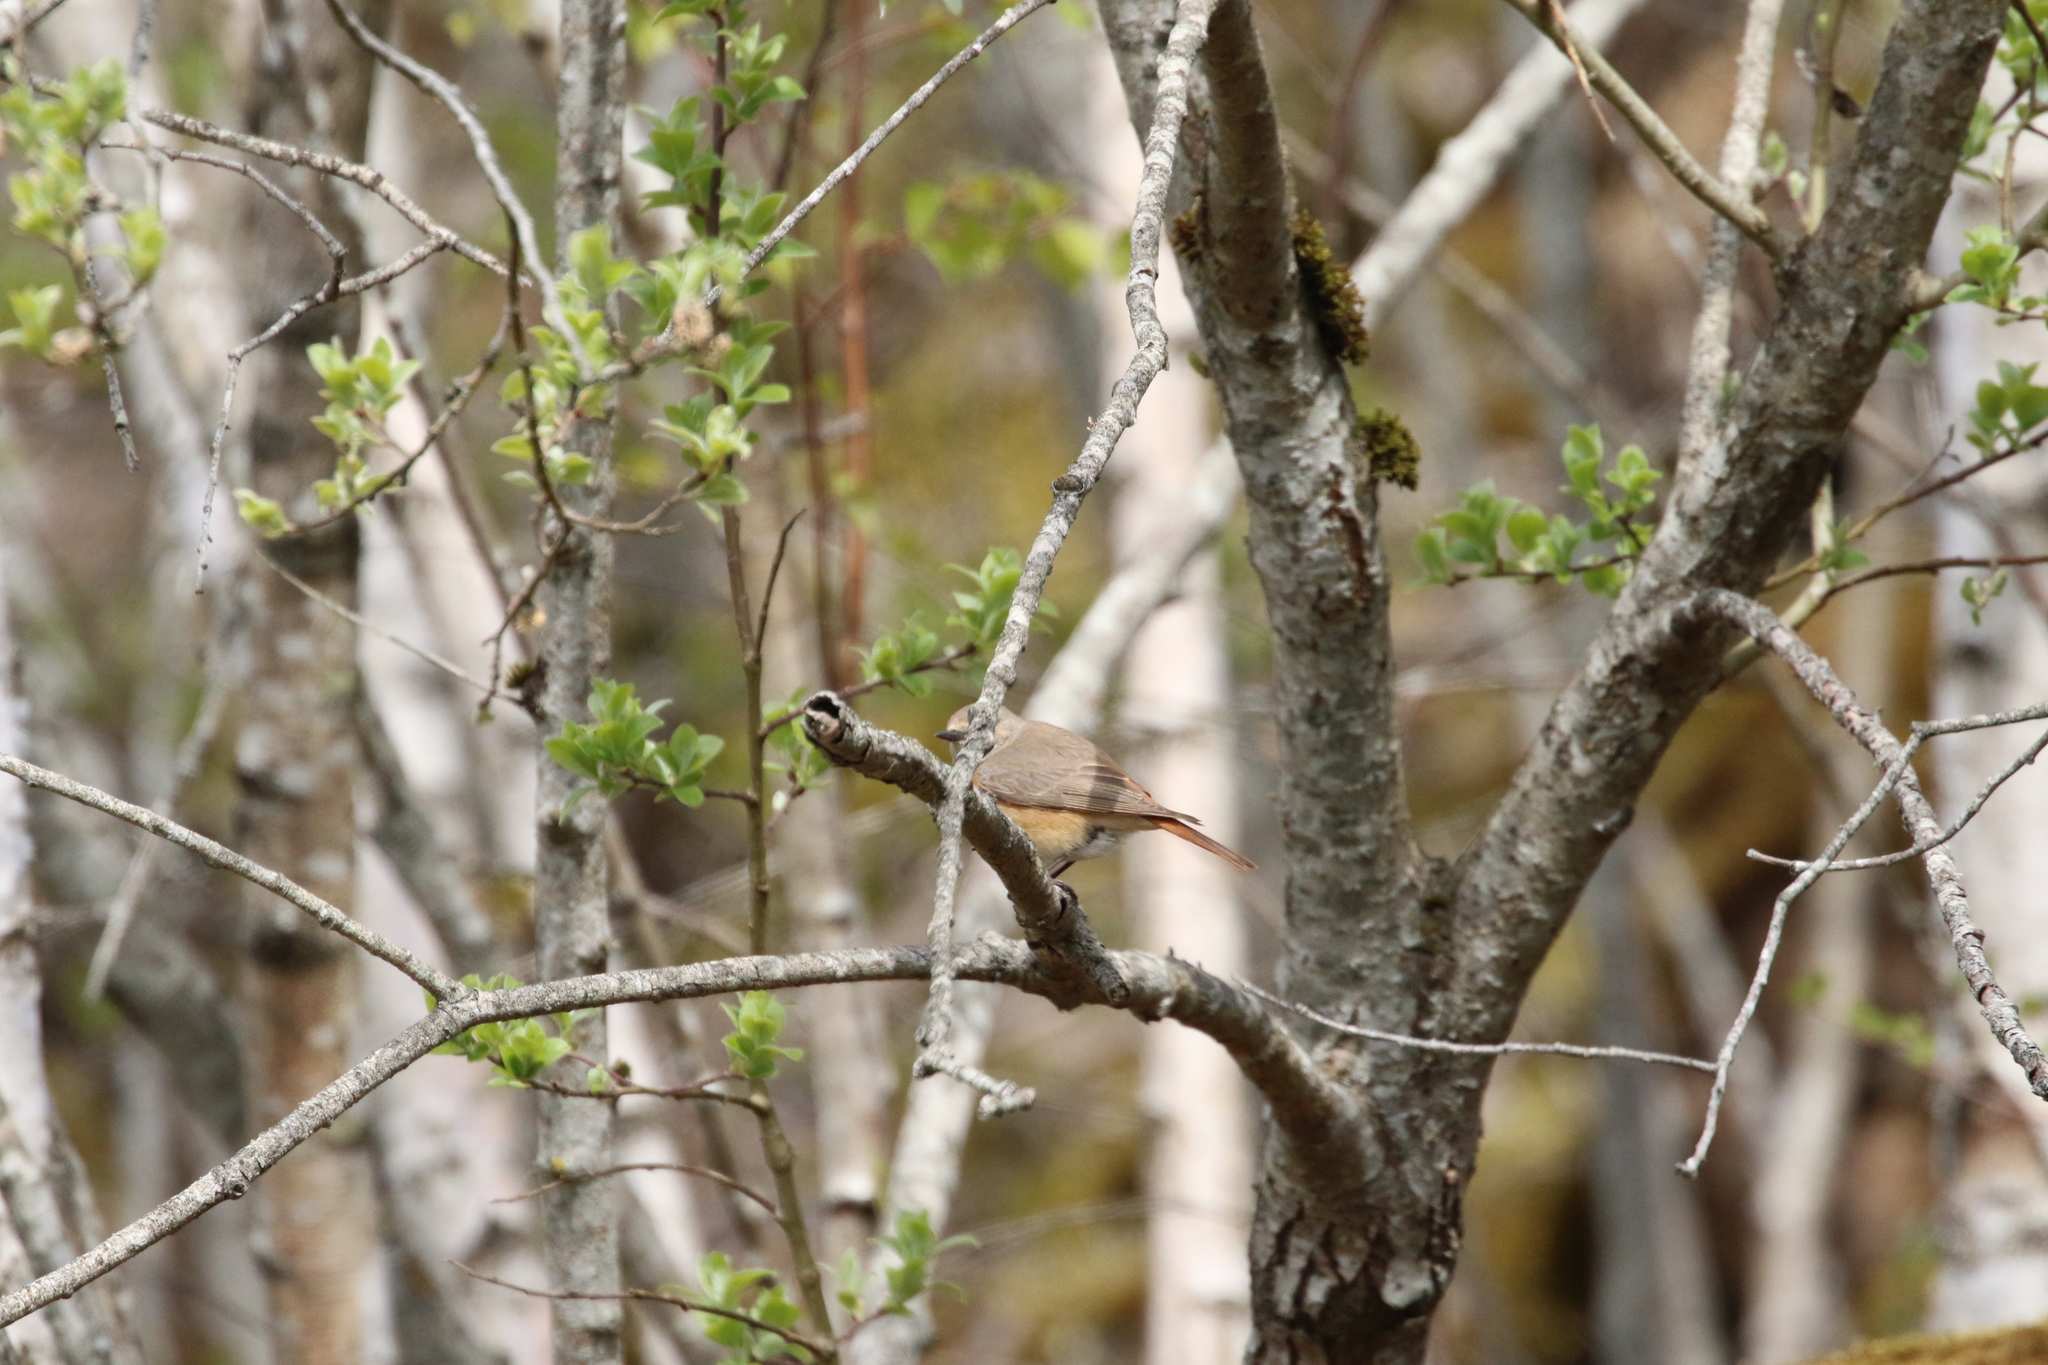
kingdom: Animalia
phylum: Chordata
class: Aves
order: Passeriformes
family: Muscicapidae
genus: Phoenicurus
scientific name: Phoenicurus phoenicurus
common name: Common redstart
